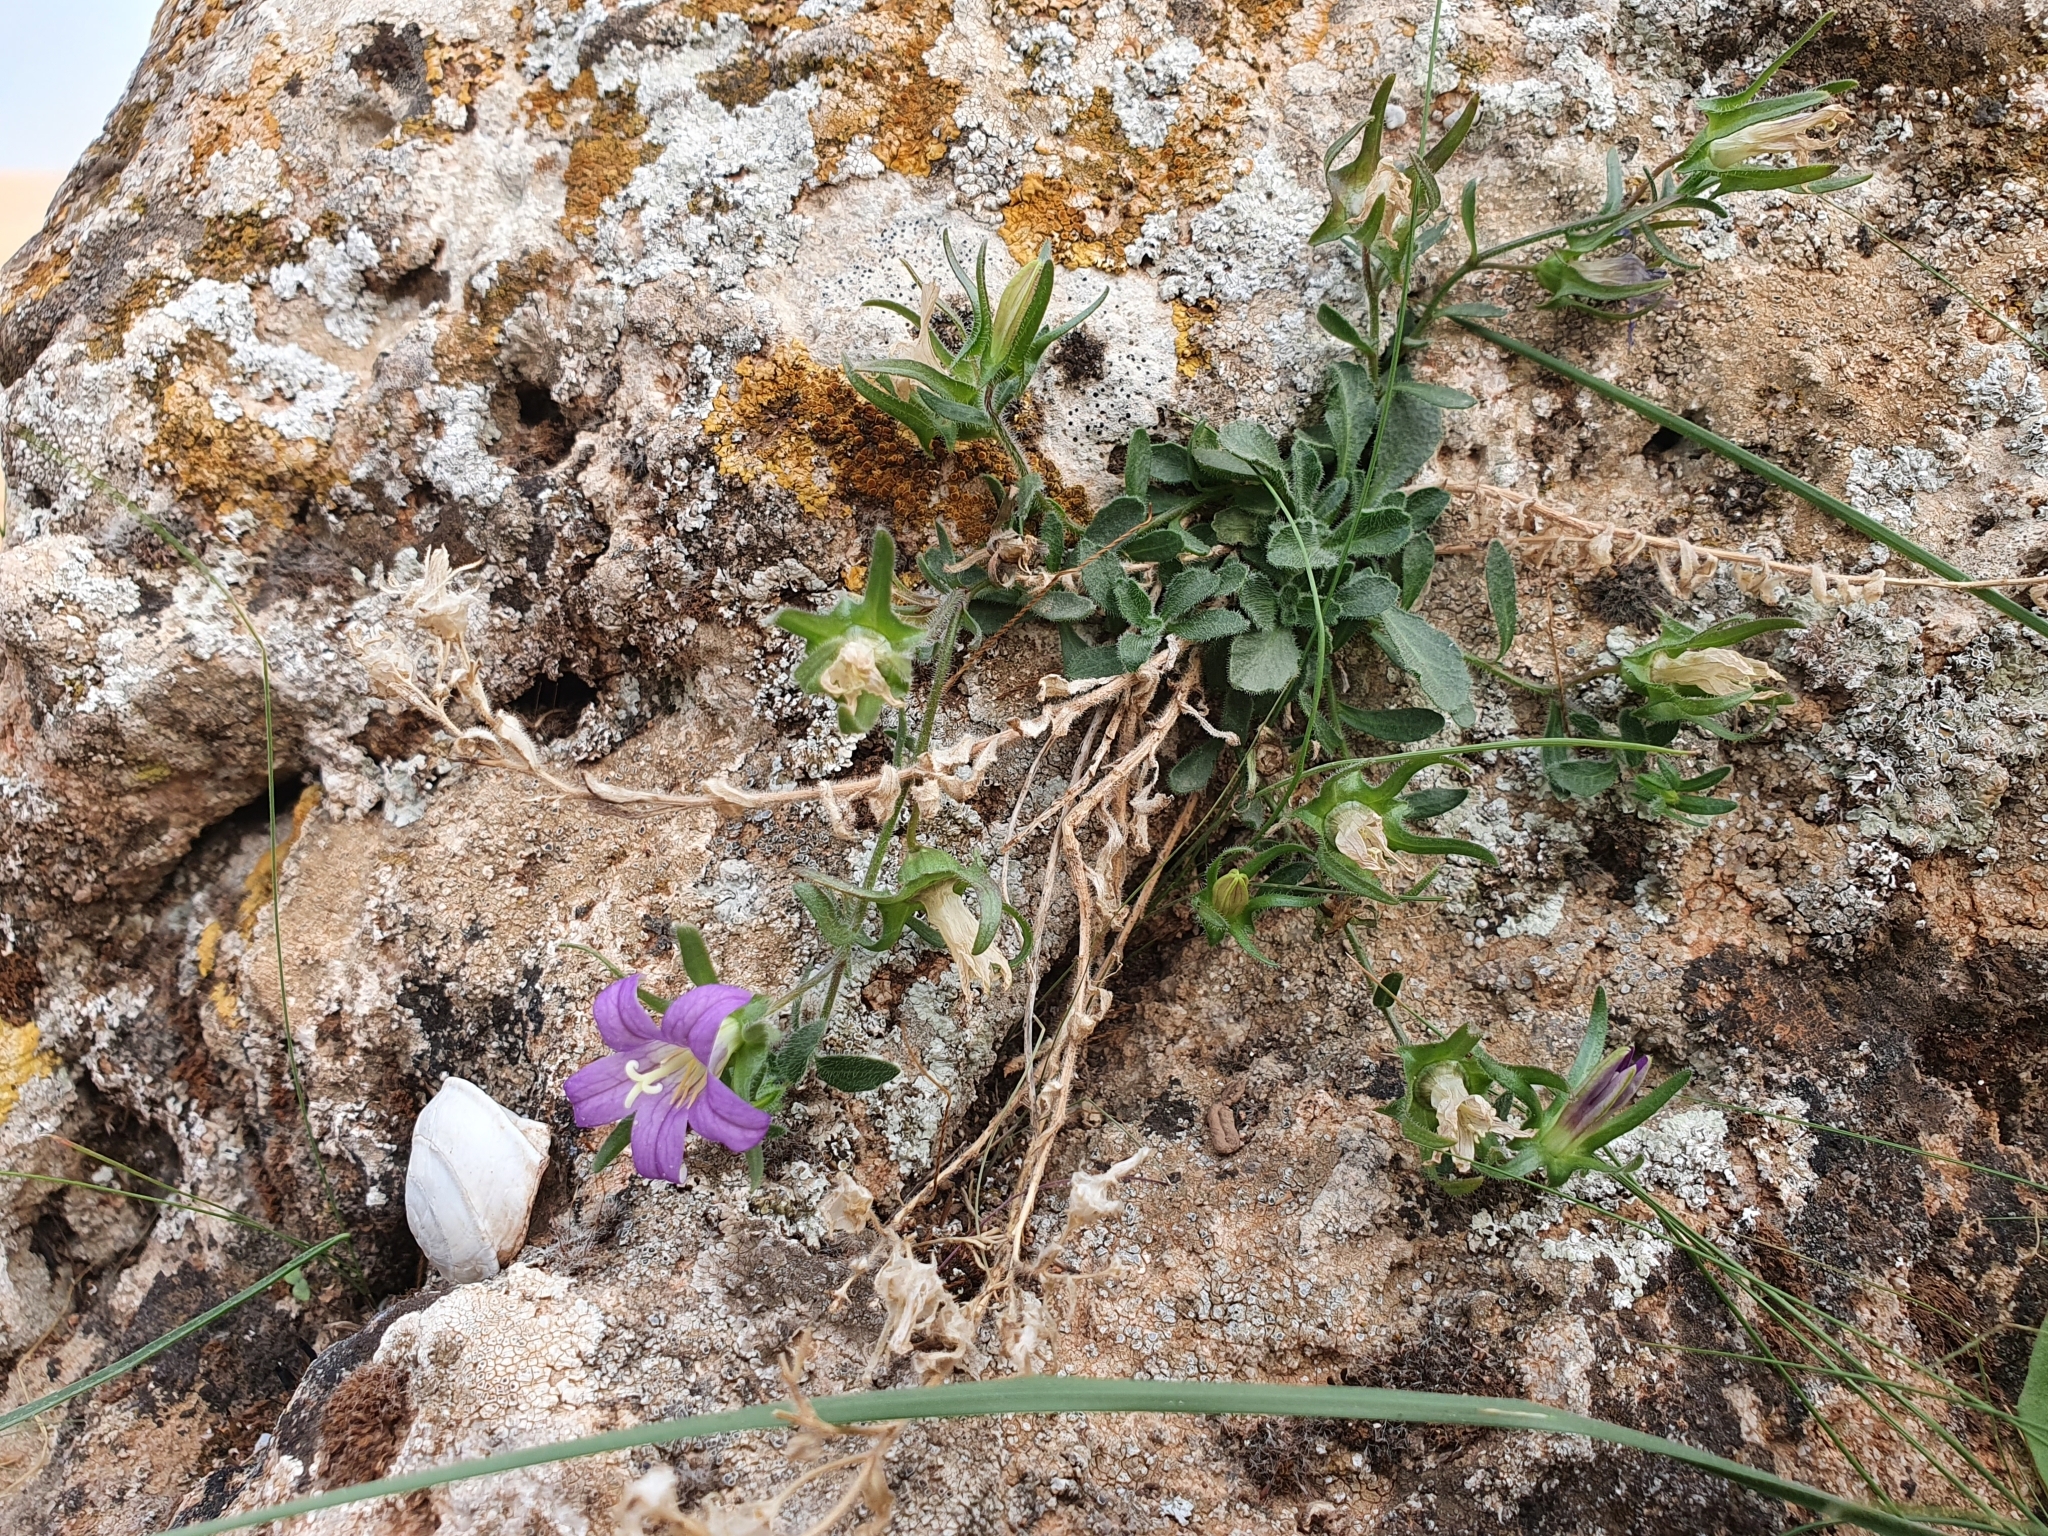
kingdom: Plantae
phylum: Tracheophyta
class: Magnoliopsida
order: Asterales
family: Campanulaceae
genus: Campanula
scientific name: Campanula numidica
